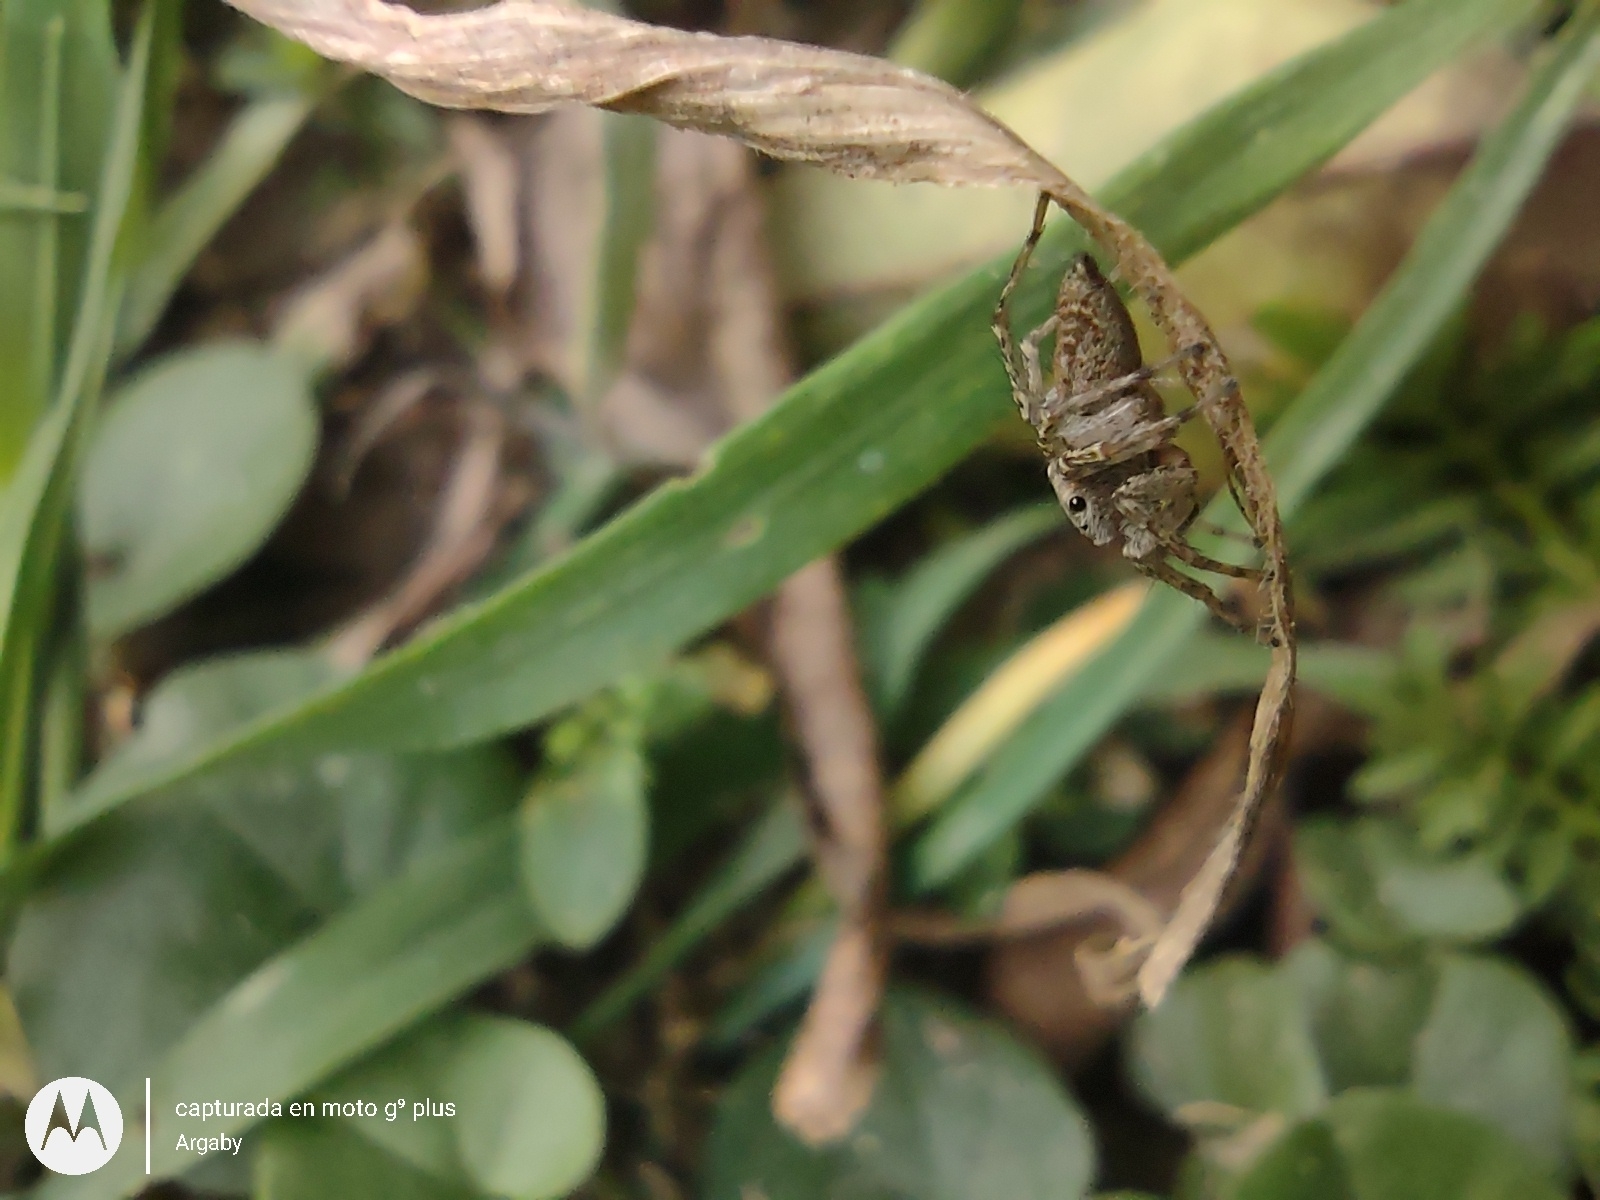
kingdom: Animalia
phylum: Arthropoda
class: Arachnida
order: Araneae
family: Salticidae
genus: Saitis
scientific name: Saitis variegatus
